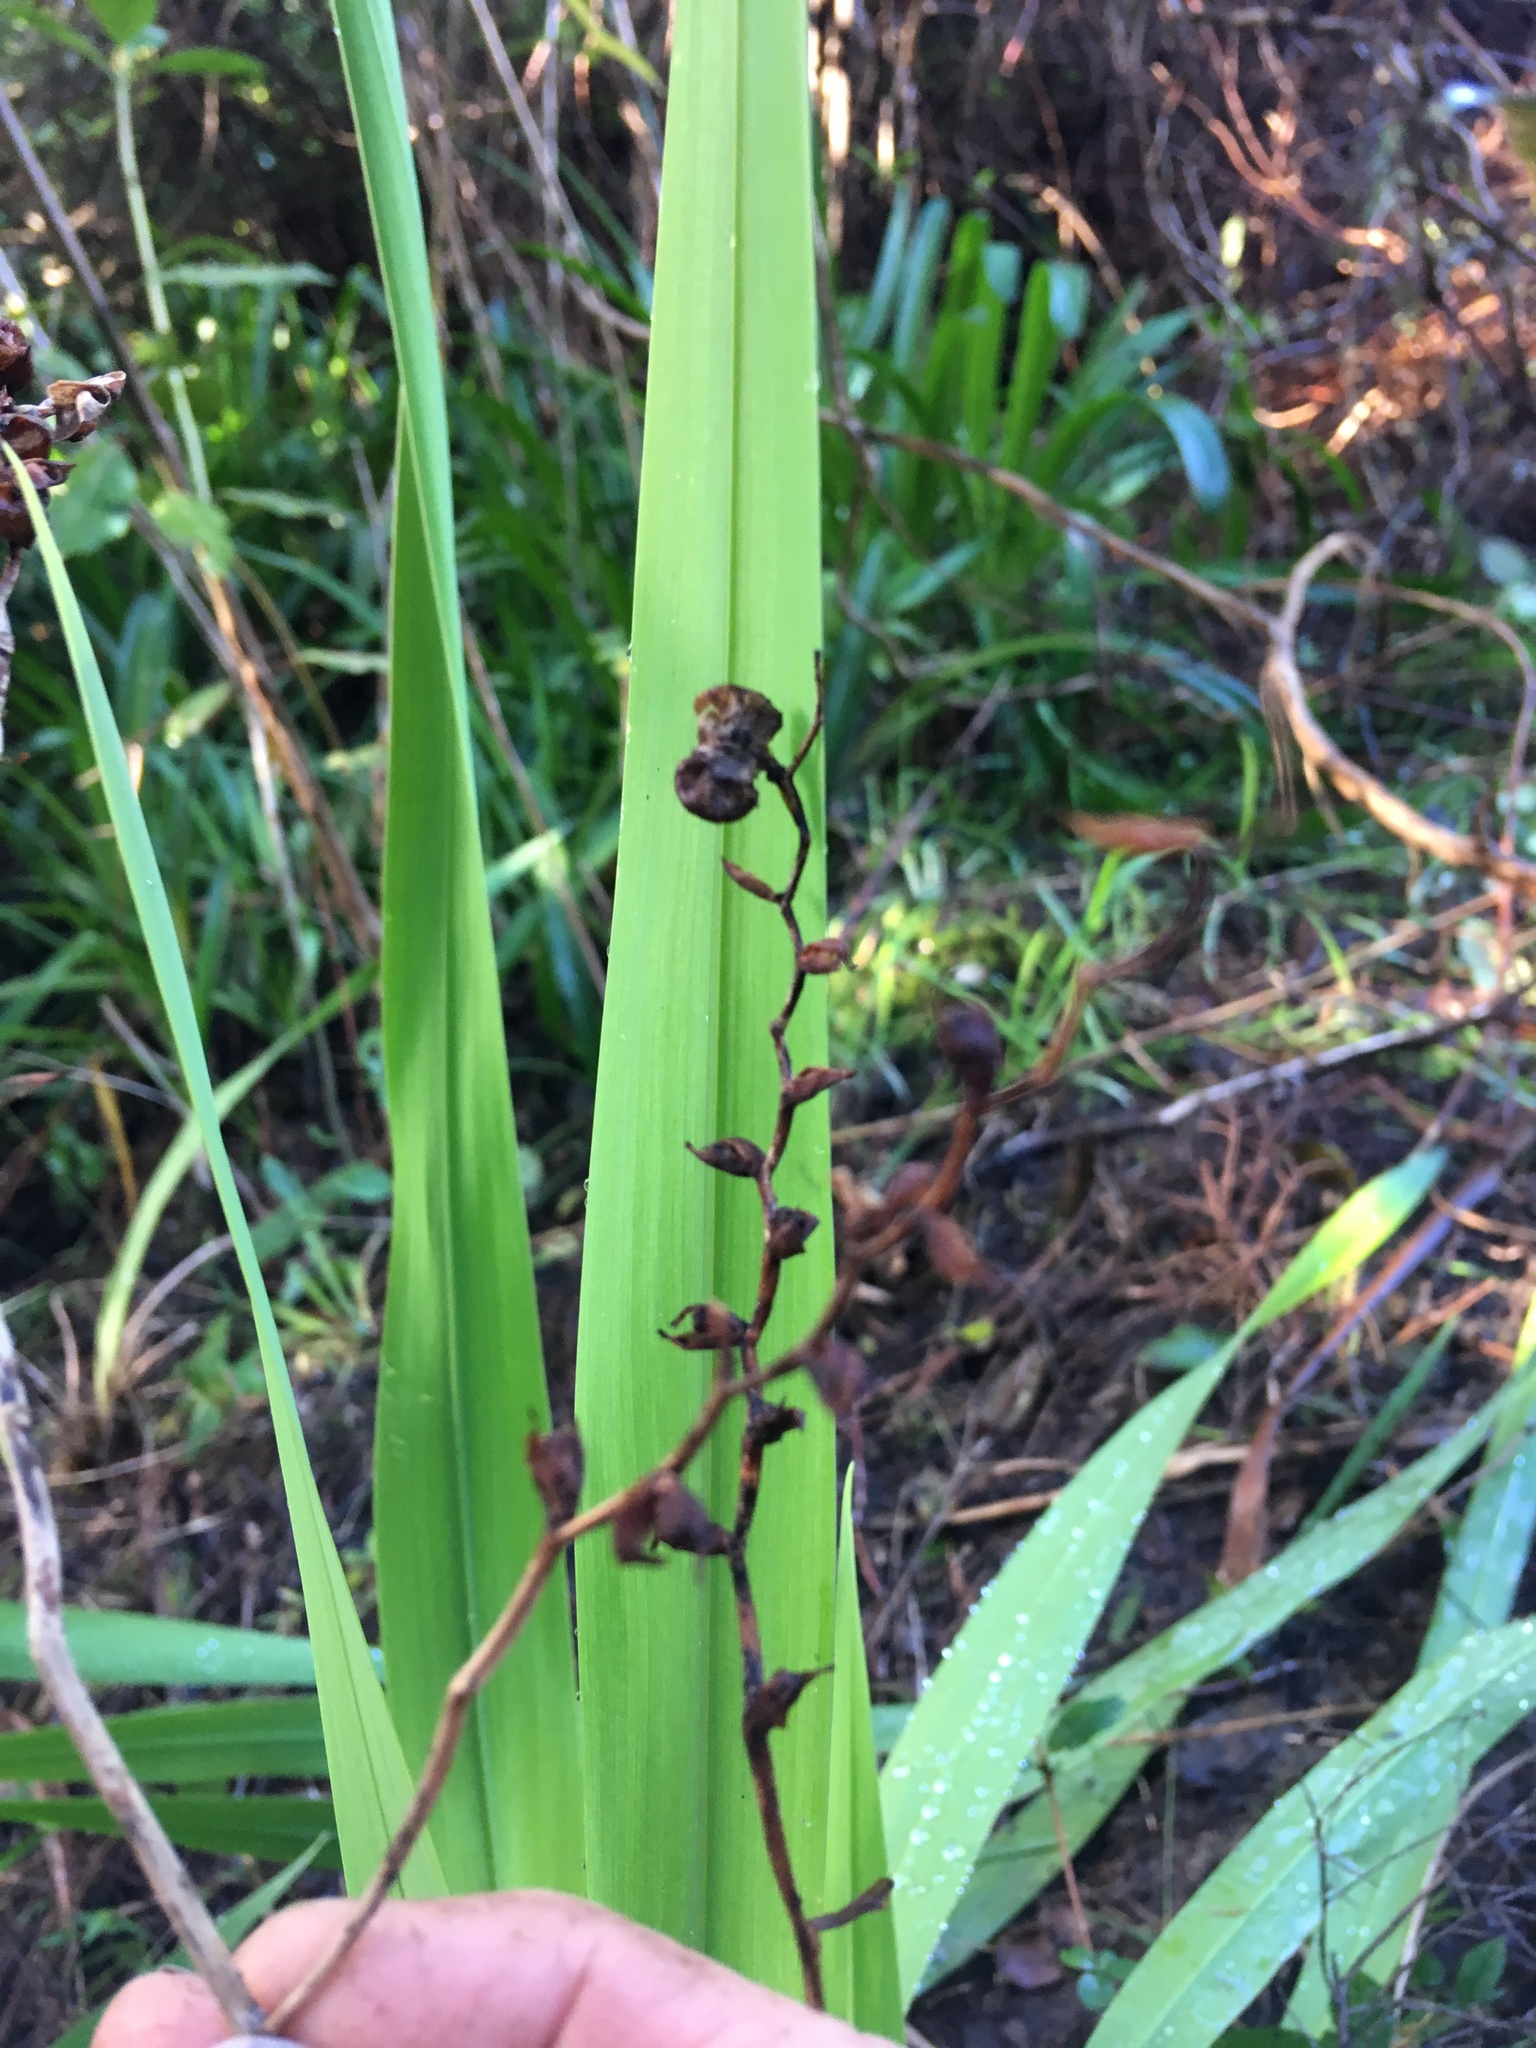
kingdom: Plantae
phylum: Tracheophyta
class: Liliopsida
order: Asparagales
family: Iridaceae
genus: Aristea
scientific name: Aristea ecklonii
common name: Blue corn-lily
